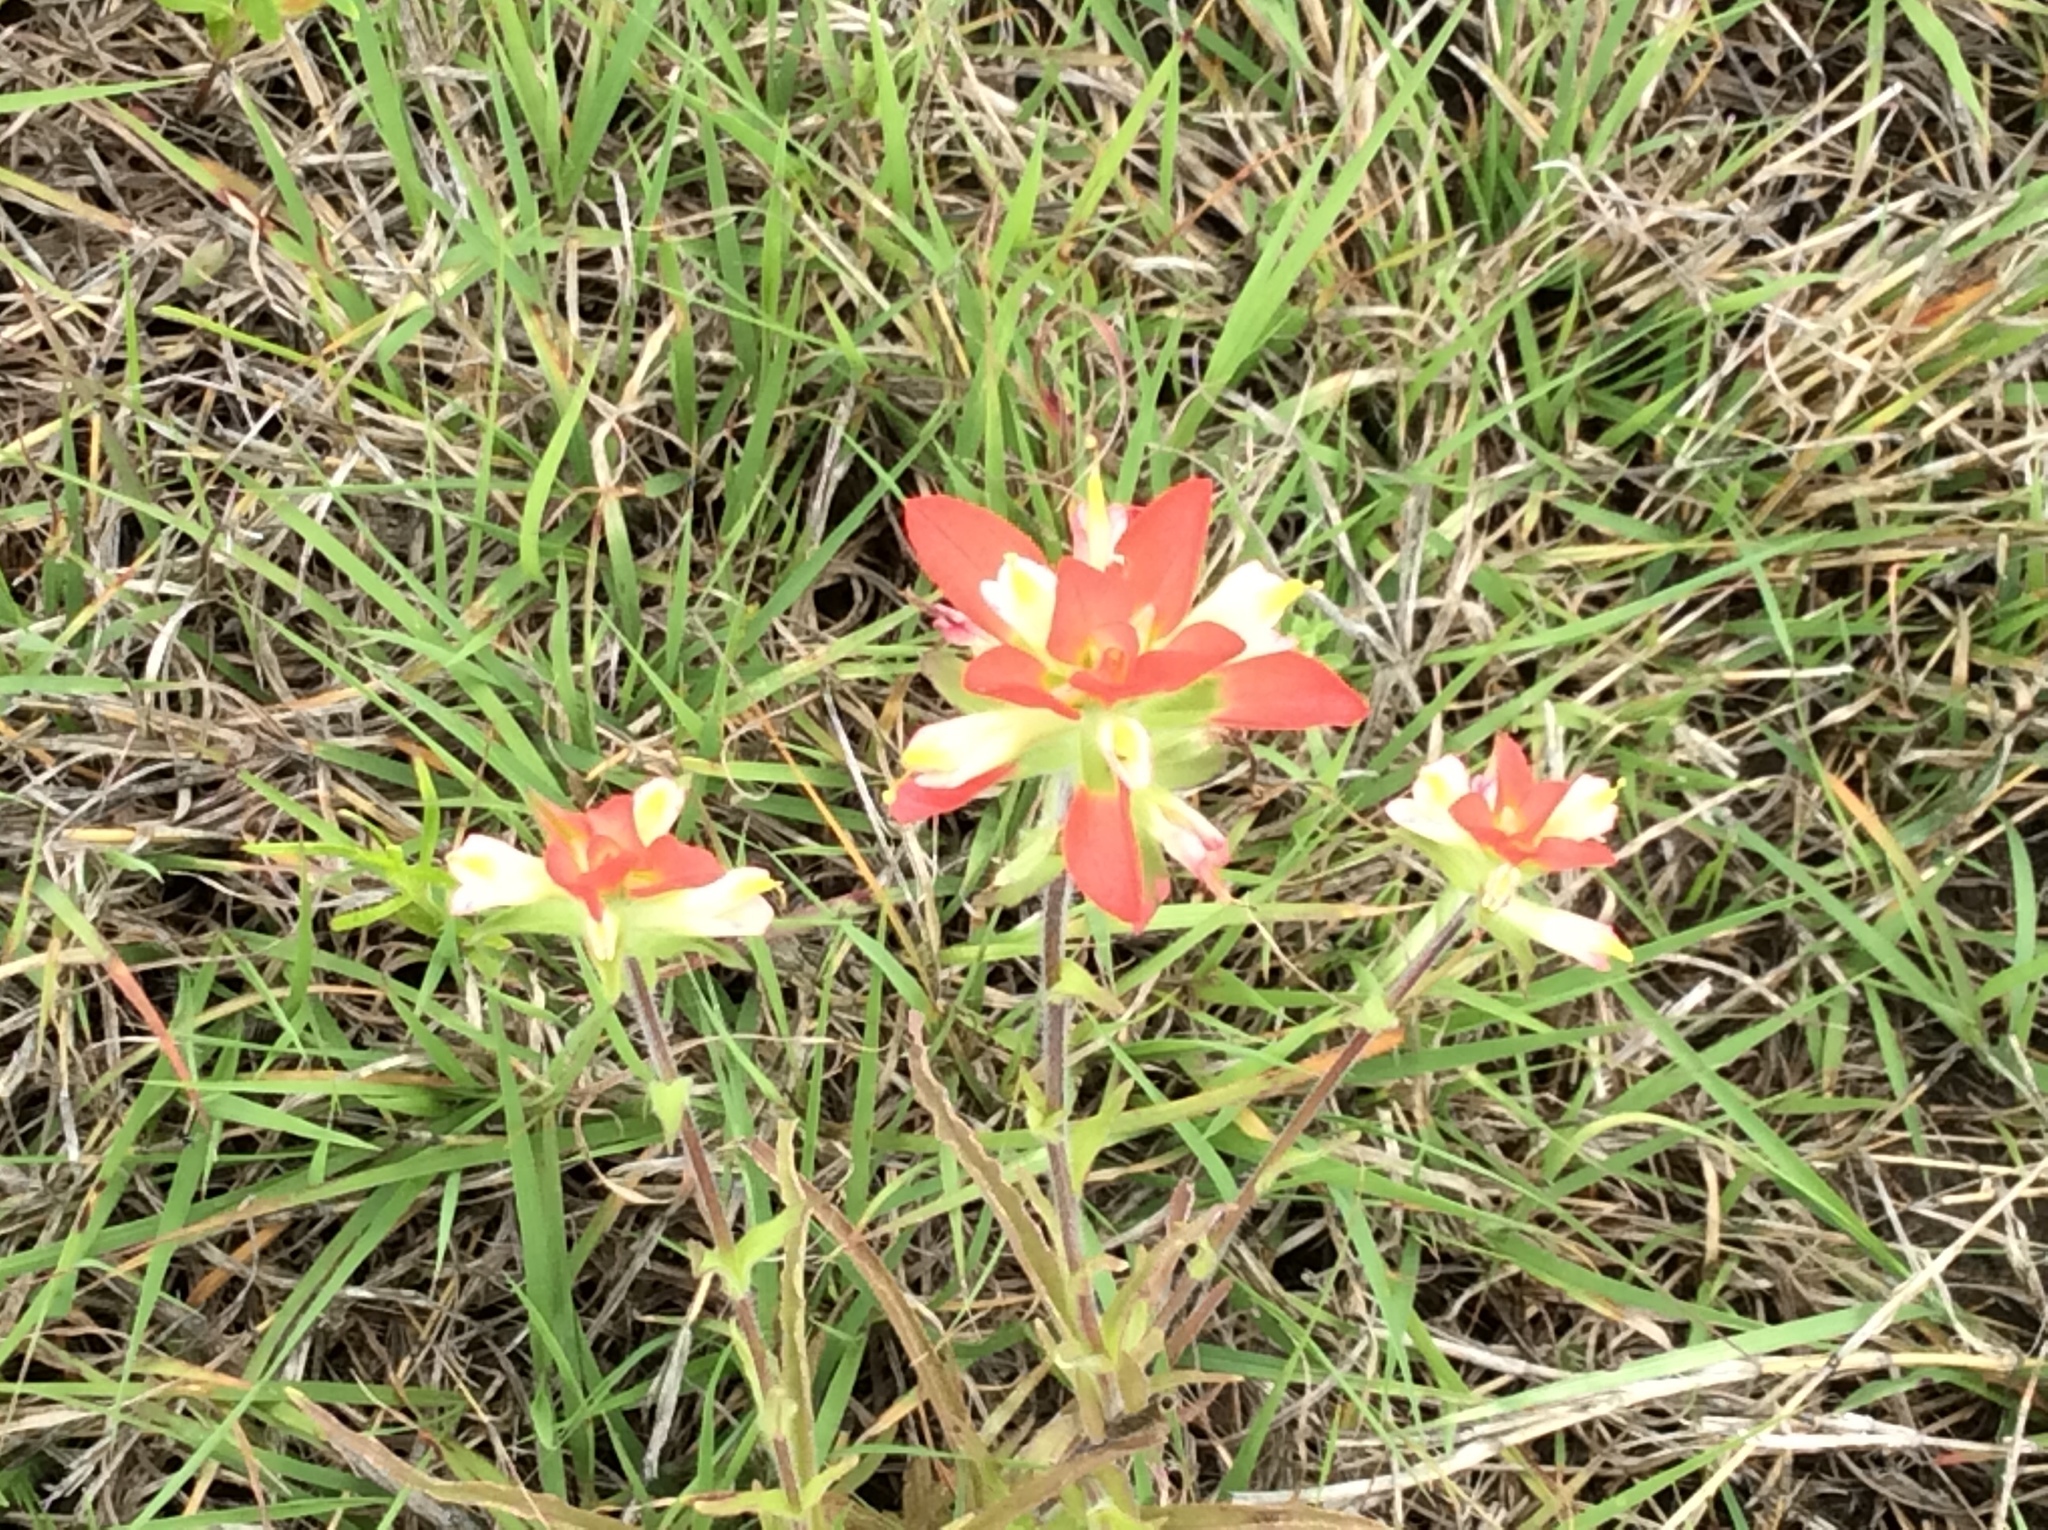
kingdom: Plantae
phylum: Tracheophyta
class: Magnoliopsida
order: Lamiales
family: Orobanchaceae
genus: Castilleja
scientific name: Castilleja indivisa
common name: Texas paintbrush
